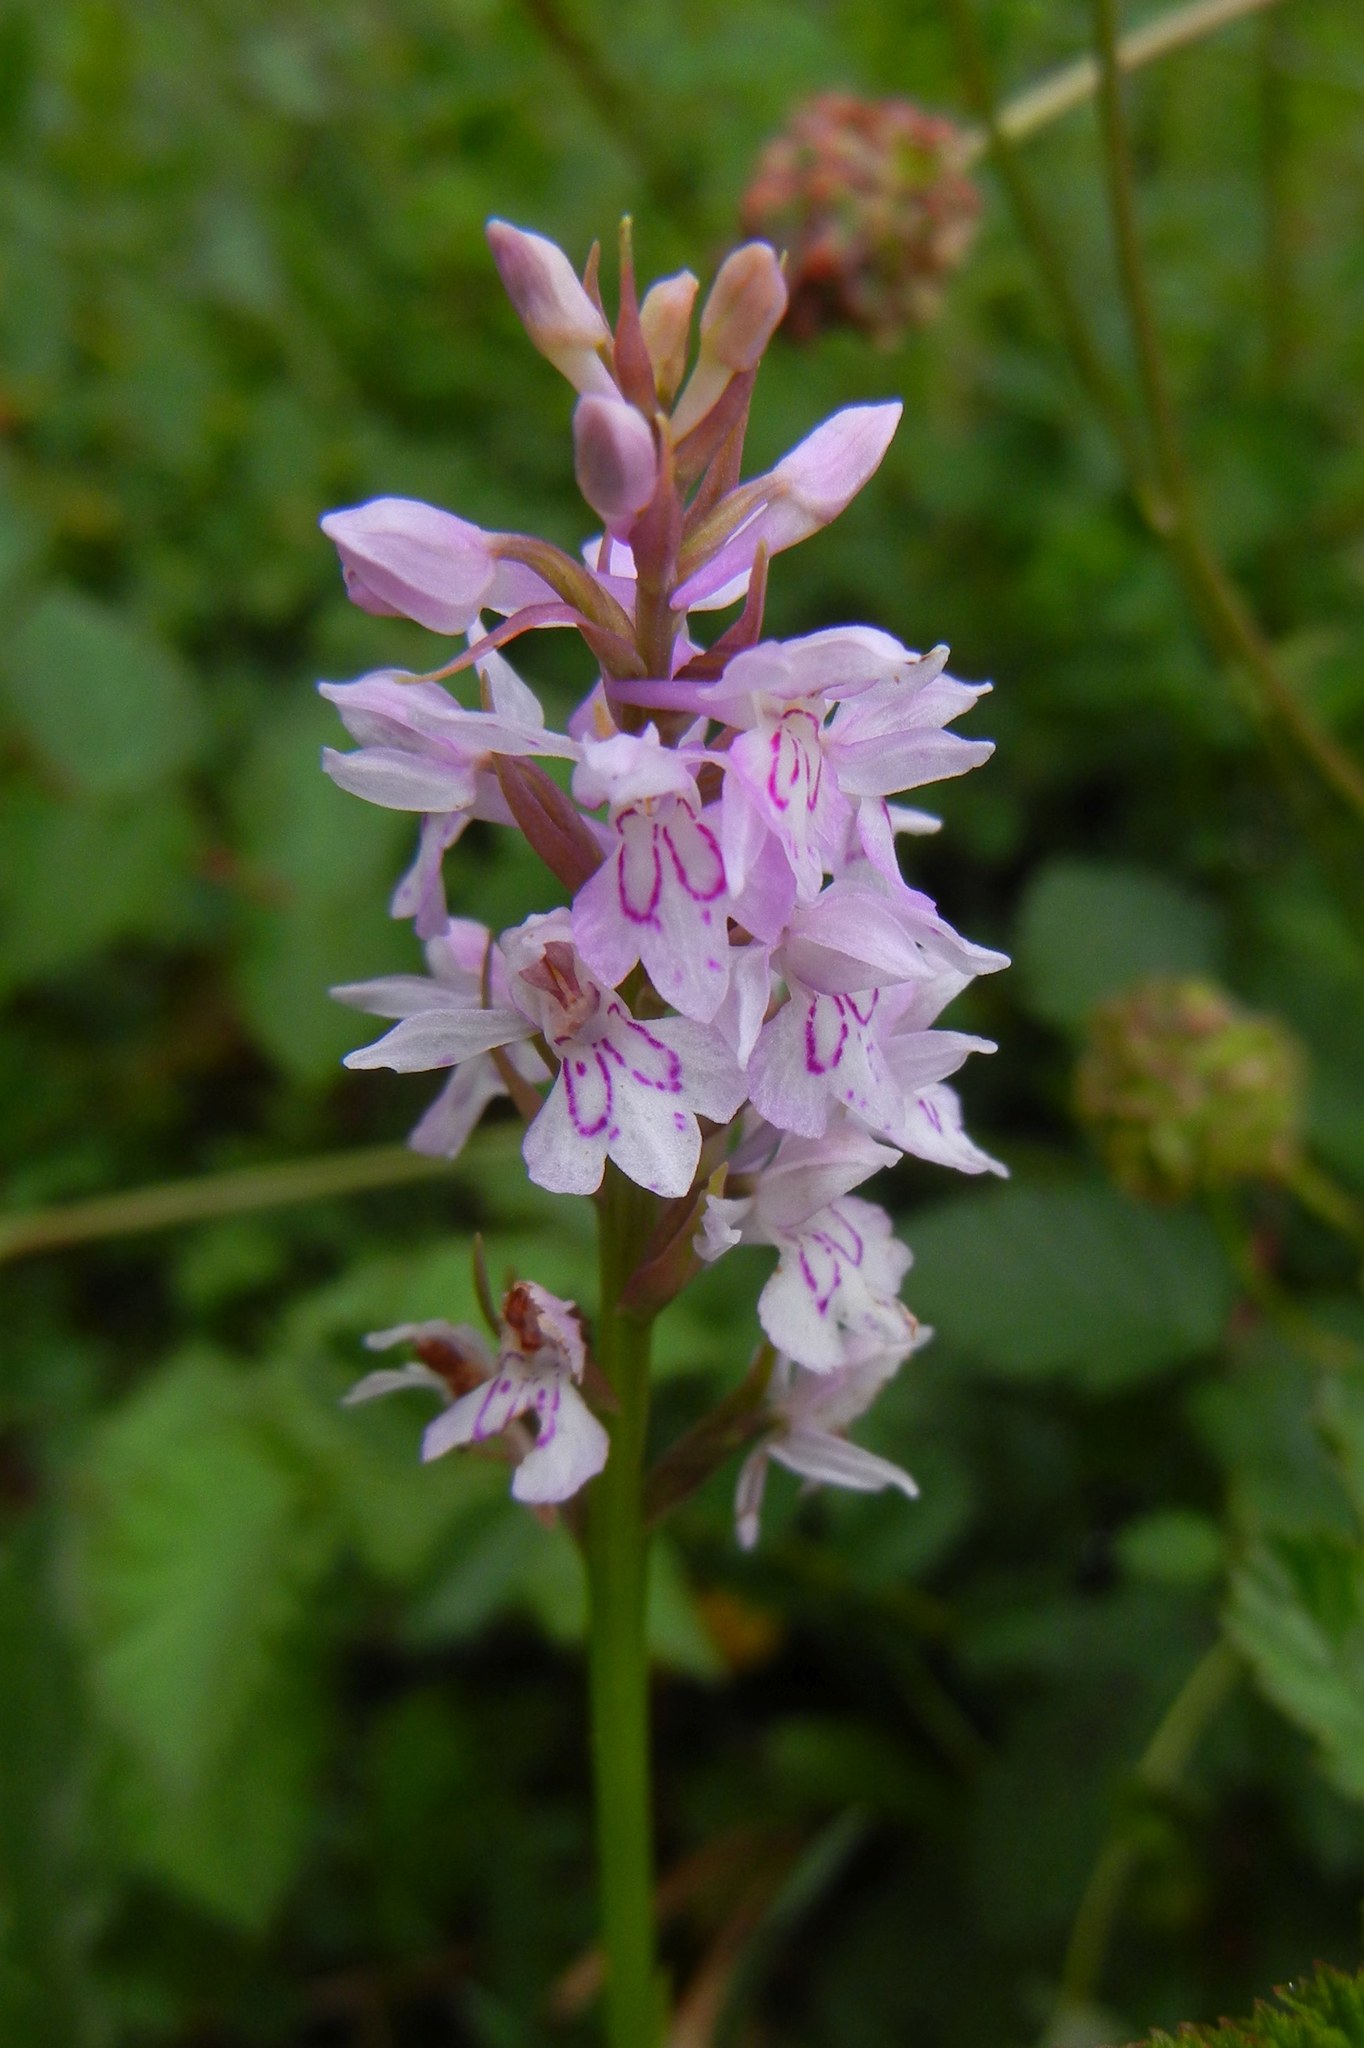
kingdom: Plantae
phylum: Tracheophyta
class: Liliopsida
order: Asparagales
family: Orchidaceae
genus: Dactylorhiza
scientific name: Dactylorhiza maculata
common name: Heath spotted-orchid
